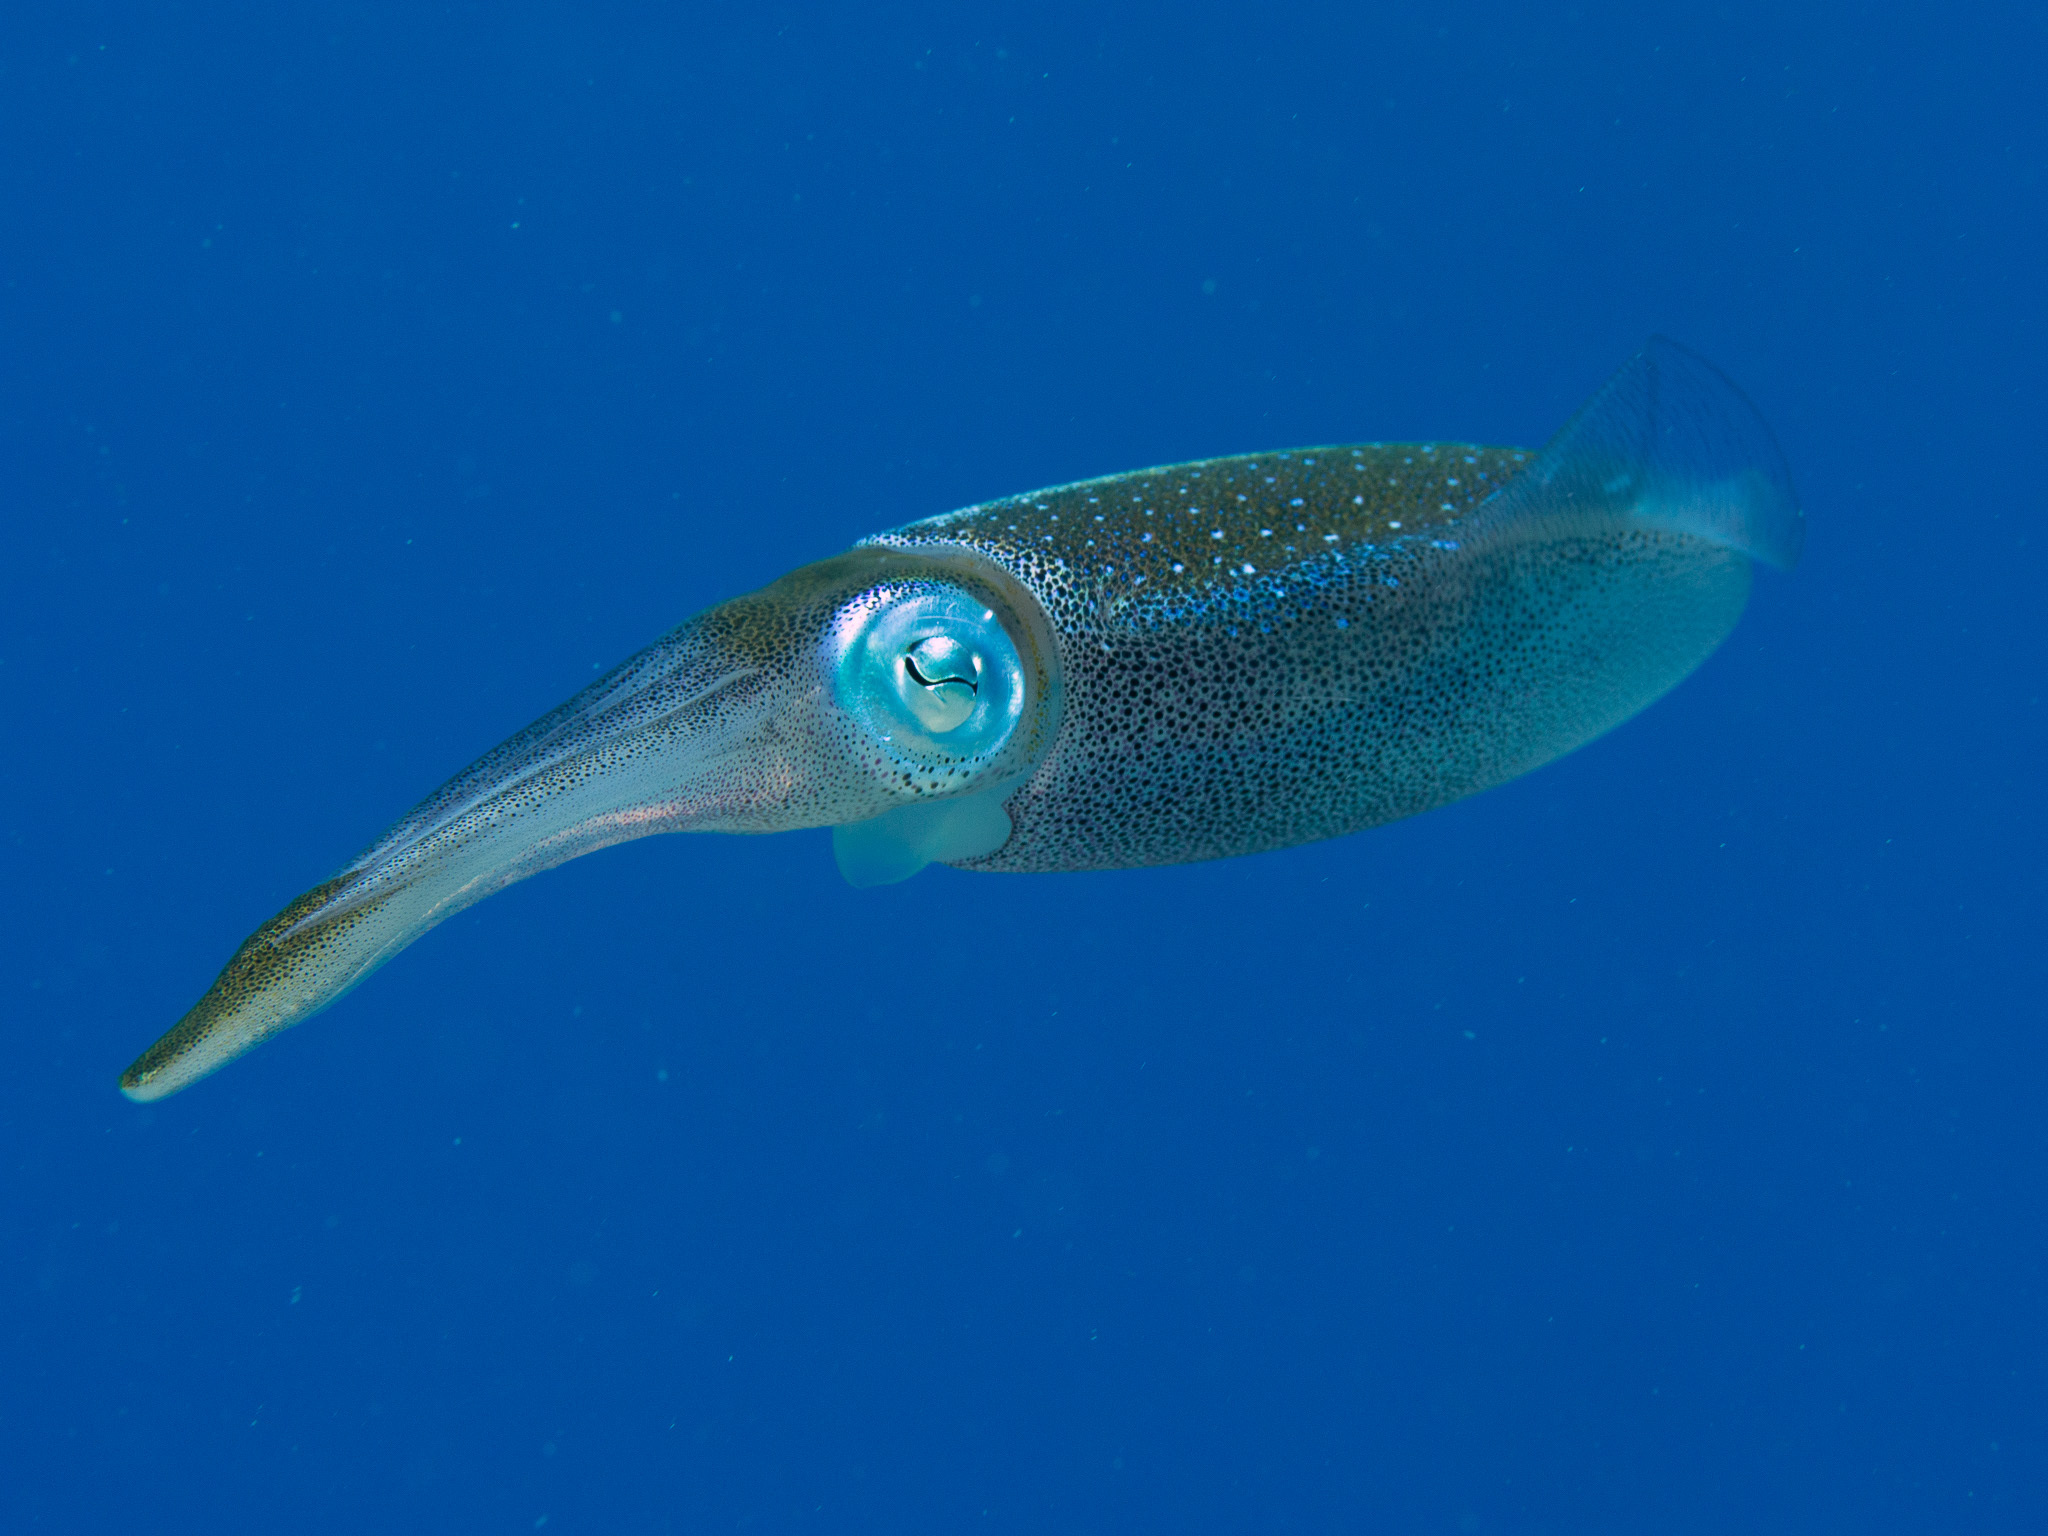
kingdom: Animalia
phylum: Mollusca
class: Cephalopoda
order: Myopsida
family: Loliginidae
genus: Sepioteuthis
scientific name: Sepioteuthis sepioidea
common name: Caribbean reef squid
